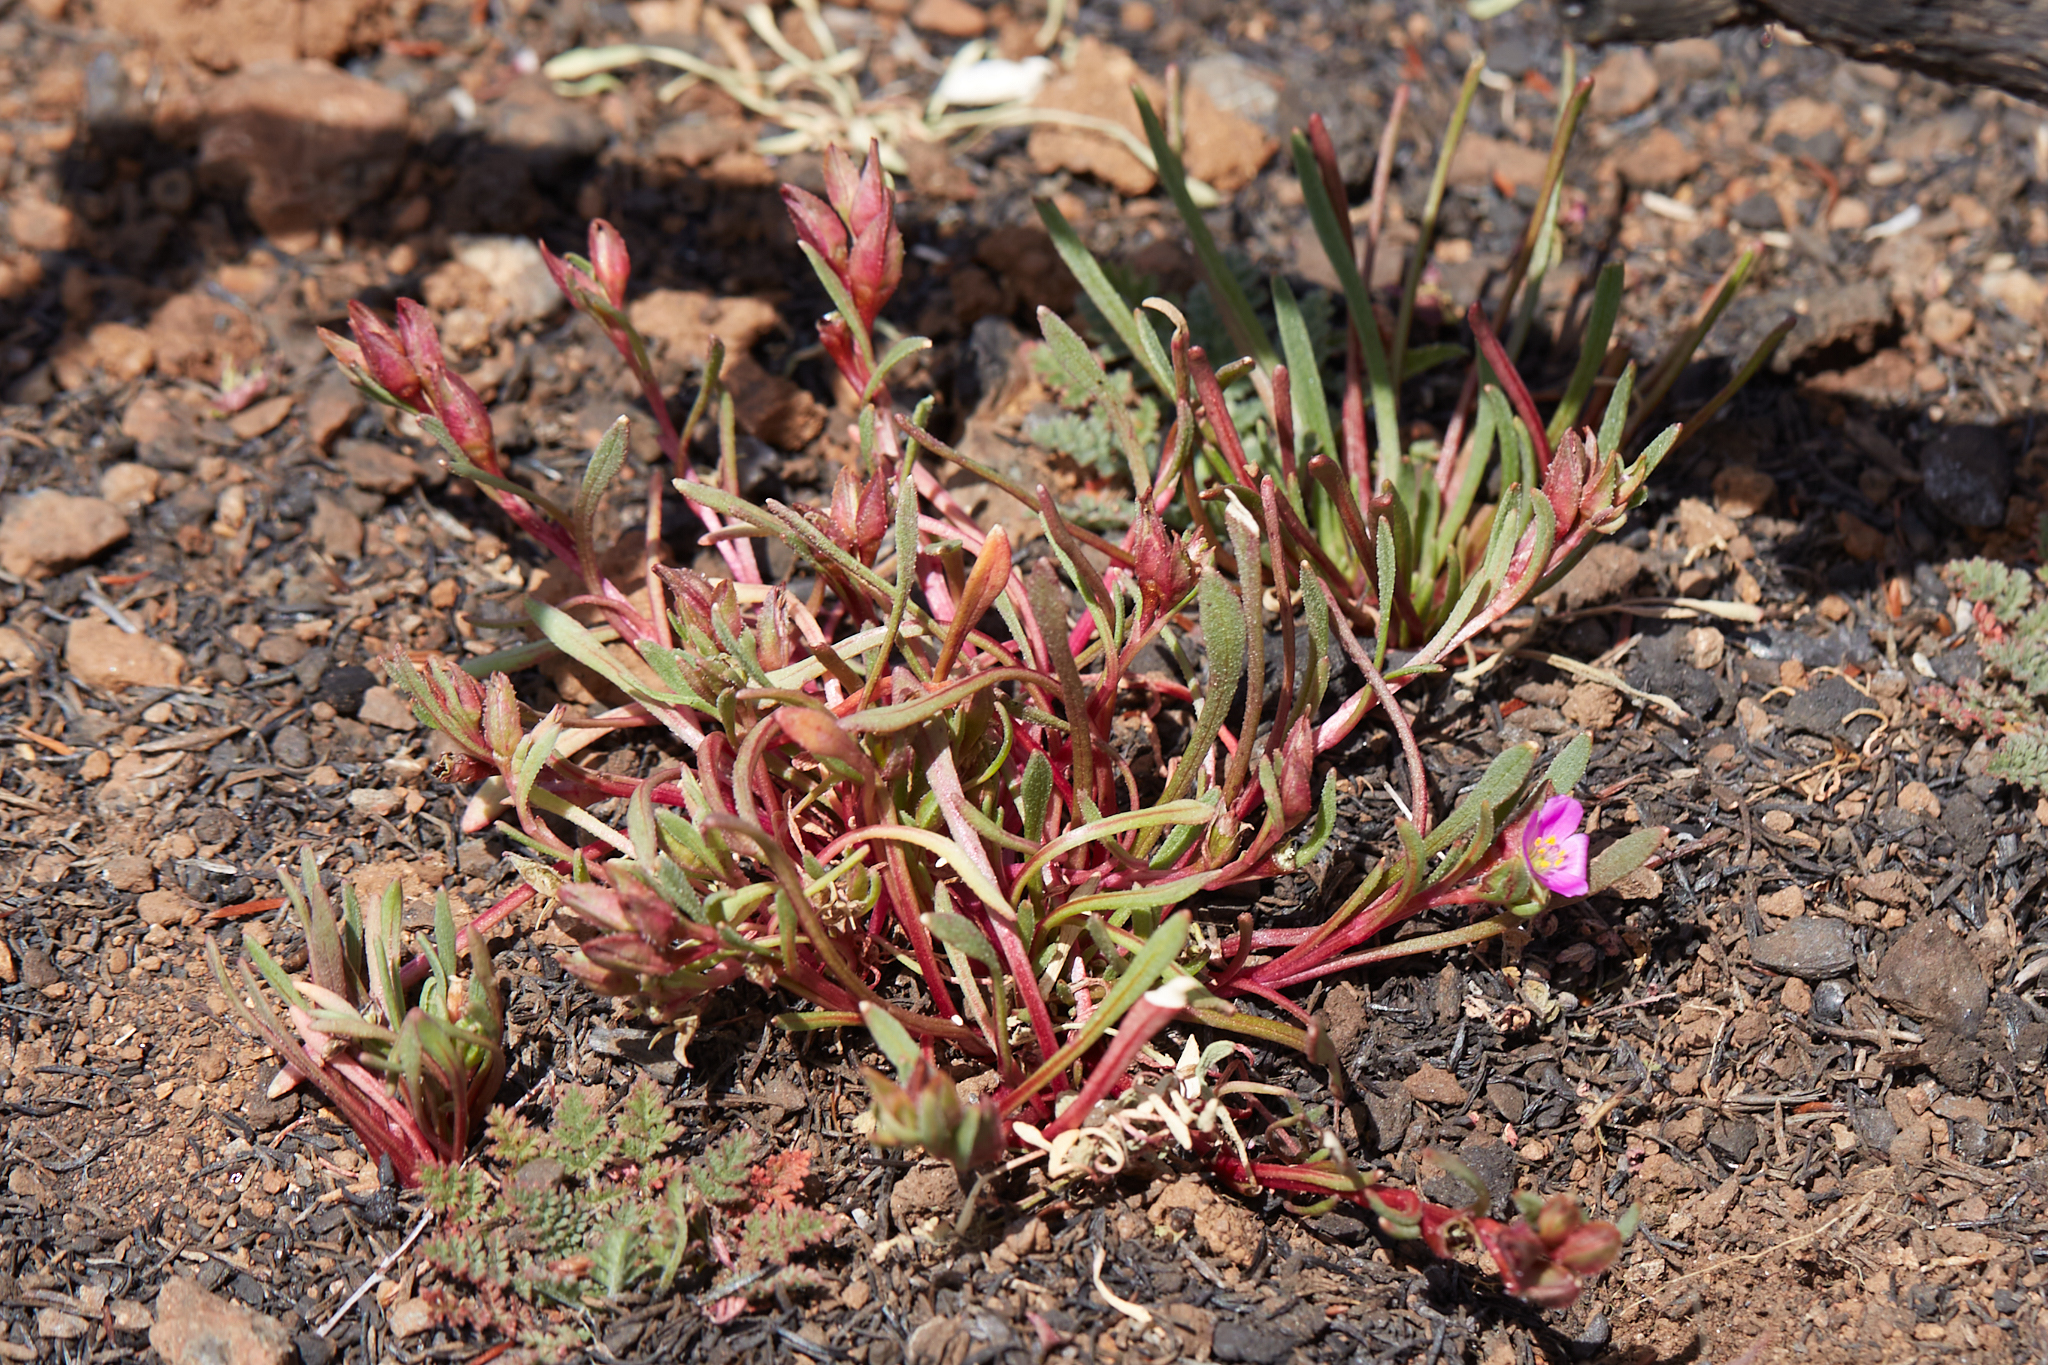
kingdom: Plantae
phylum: Tracheophyta
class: Magnoliopsida
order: Caryophyllales
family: Montiaceae
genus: Calandrinia
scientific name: Calandrinia menziesii
